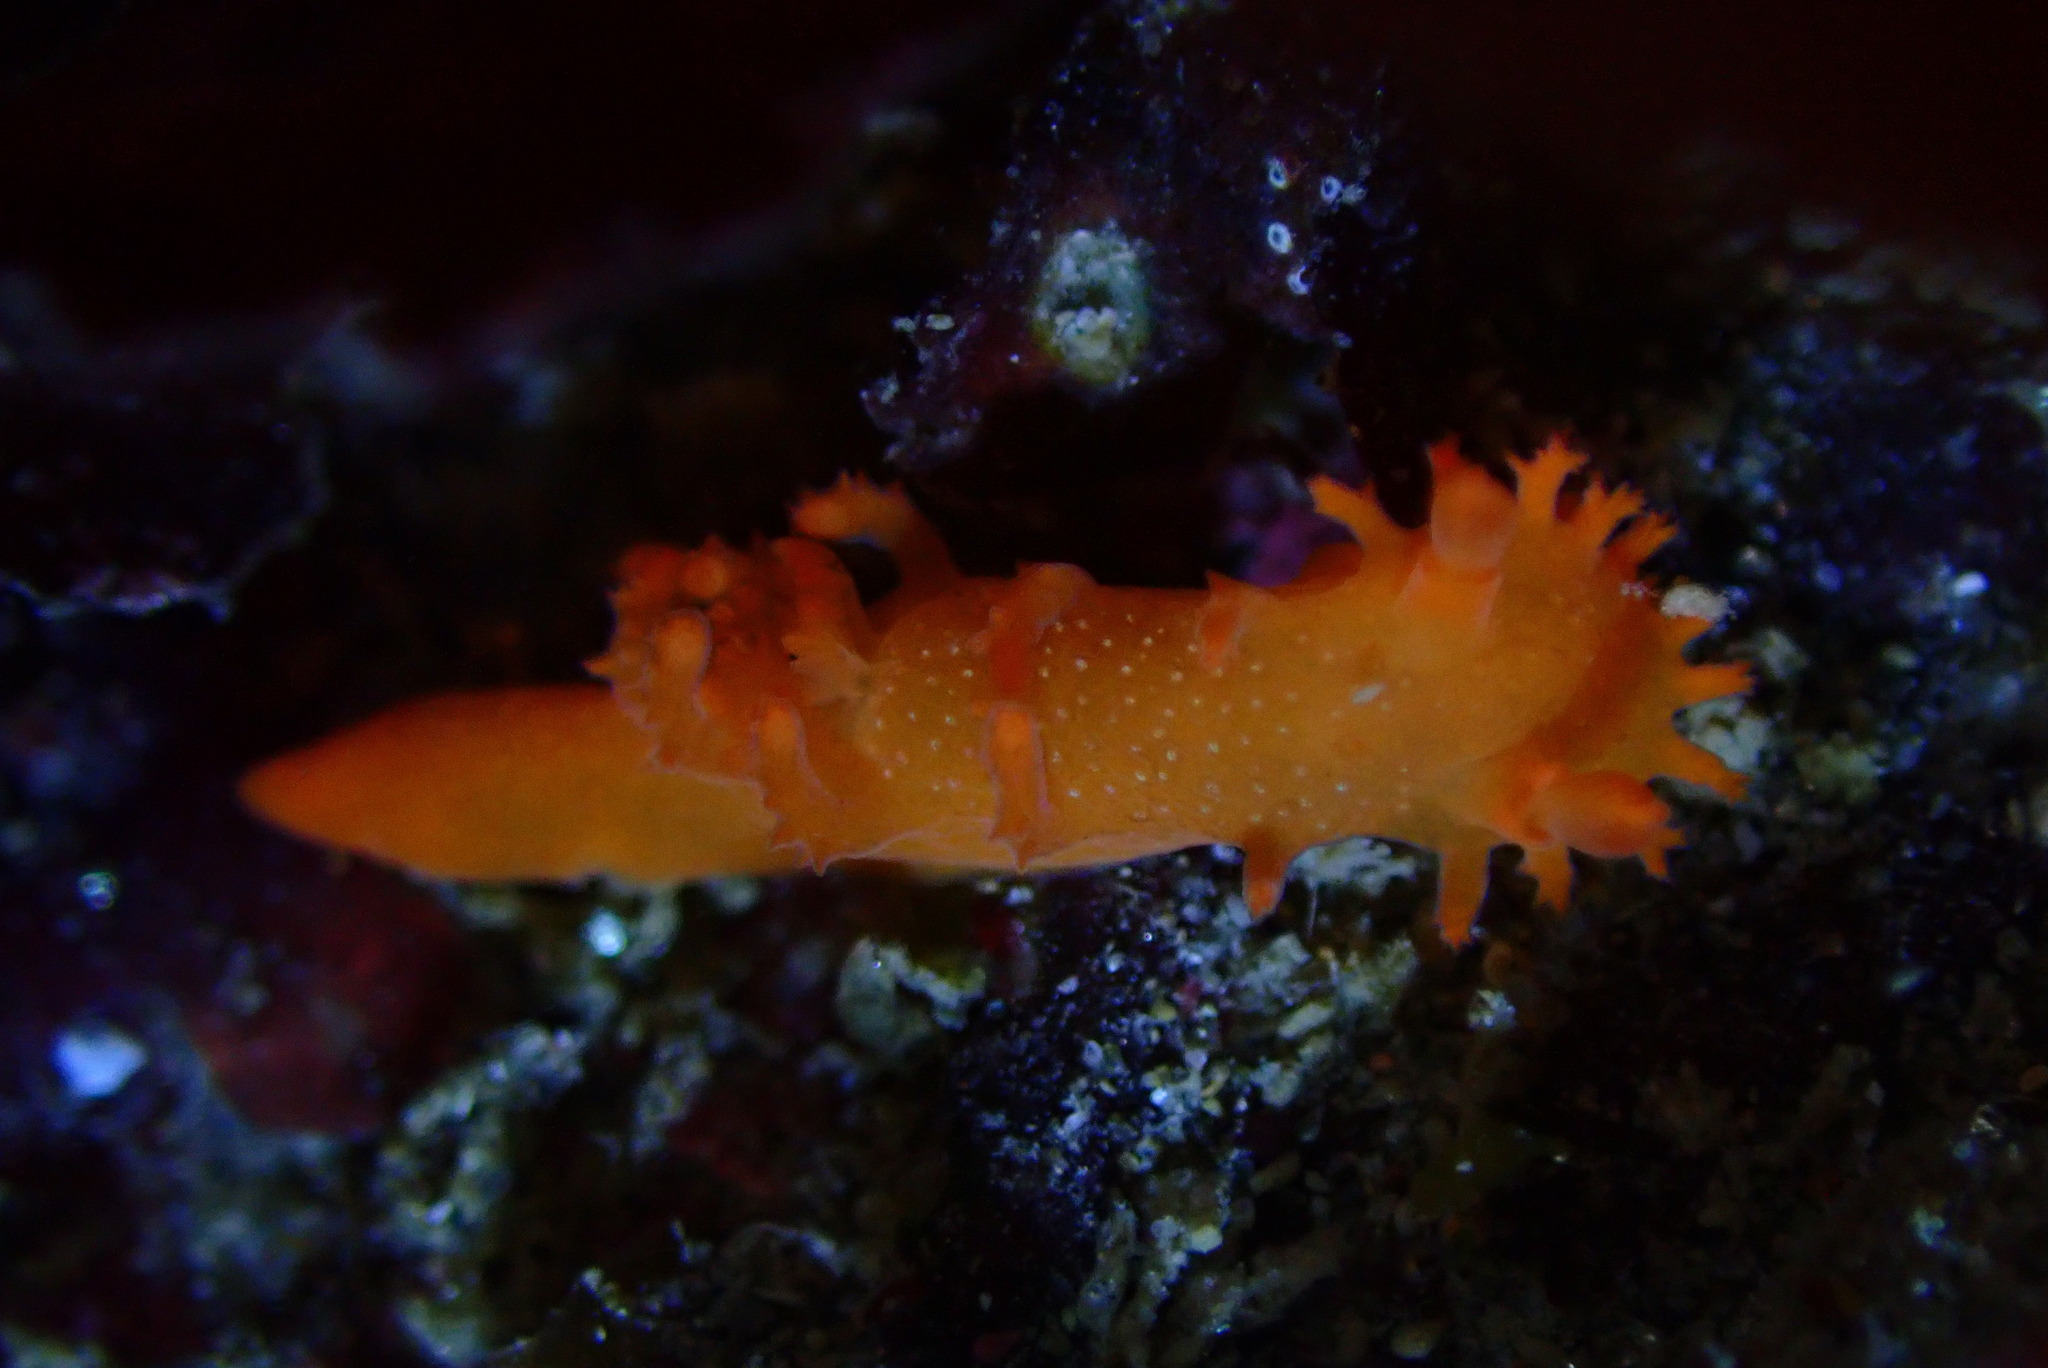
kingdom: Animalia
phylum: Mollusca
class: Gastropoda
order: Nudibranchia
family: Polyceridae
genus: Triopha
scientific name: Triopha maculata
